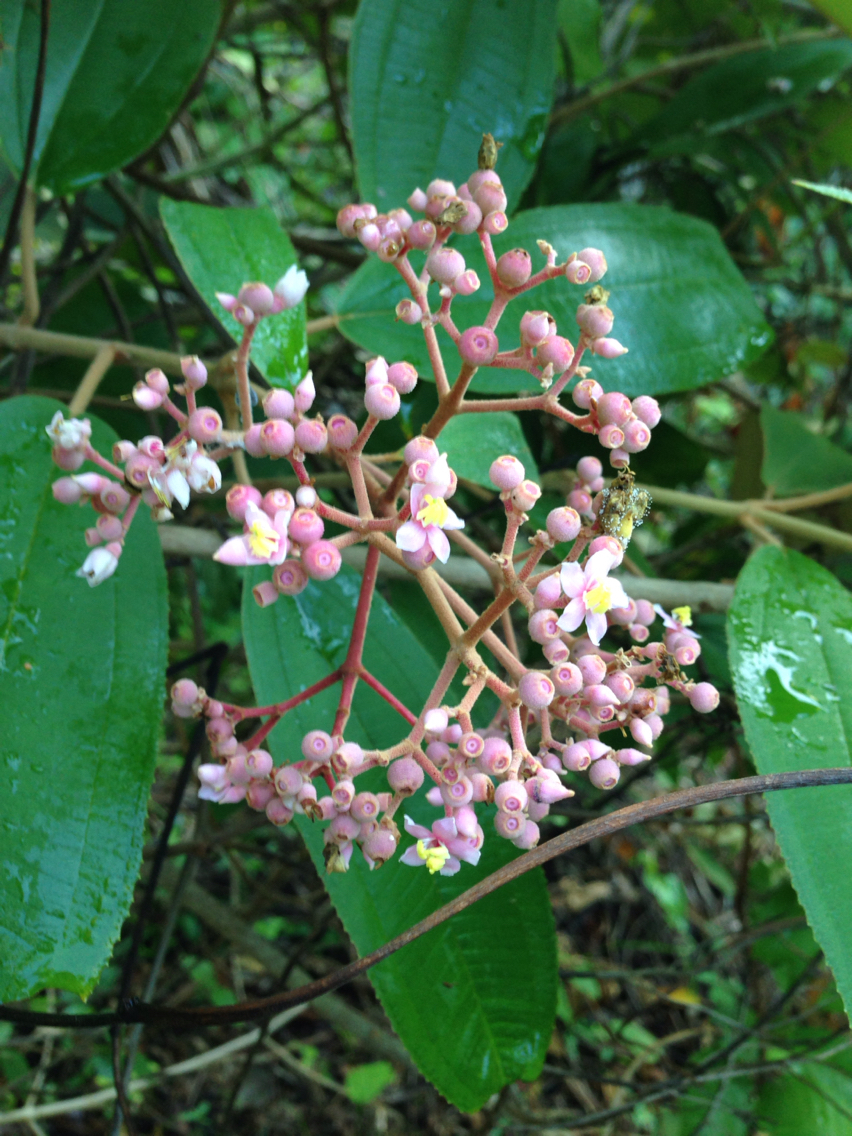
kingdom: Plantae
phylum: Tracheophyta
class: Magnoliopsida
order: Myrtales
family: Melastomataceae
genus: Miconia
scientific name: Miconia xalapensis
